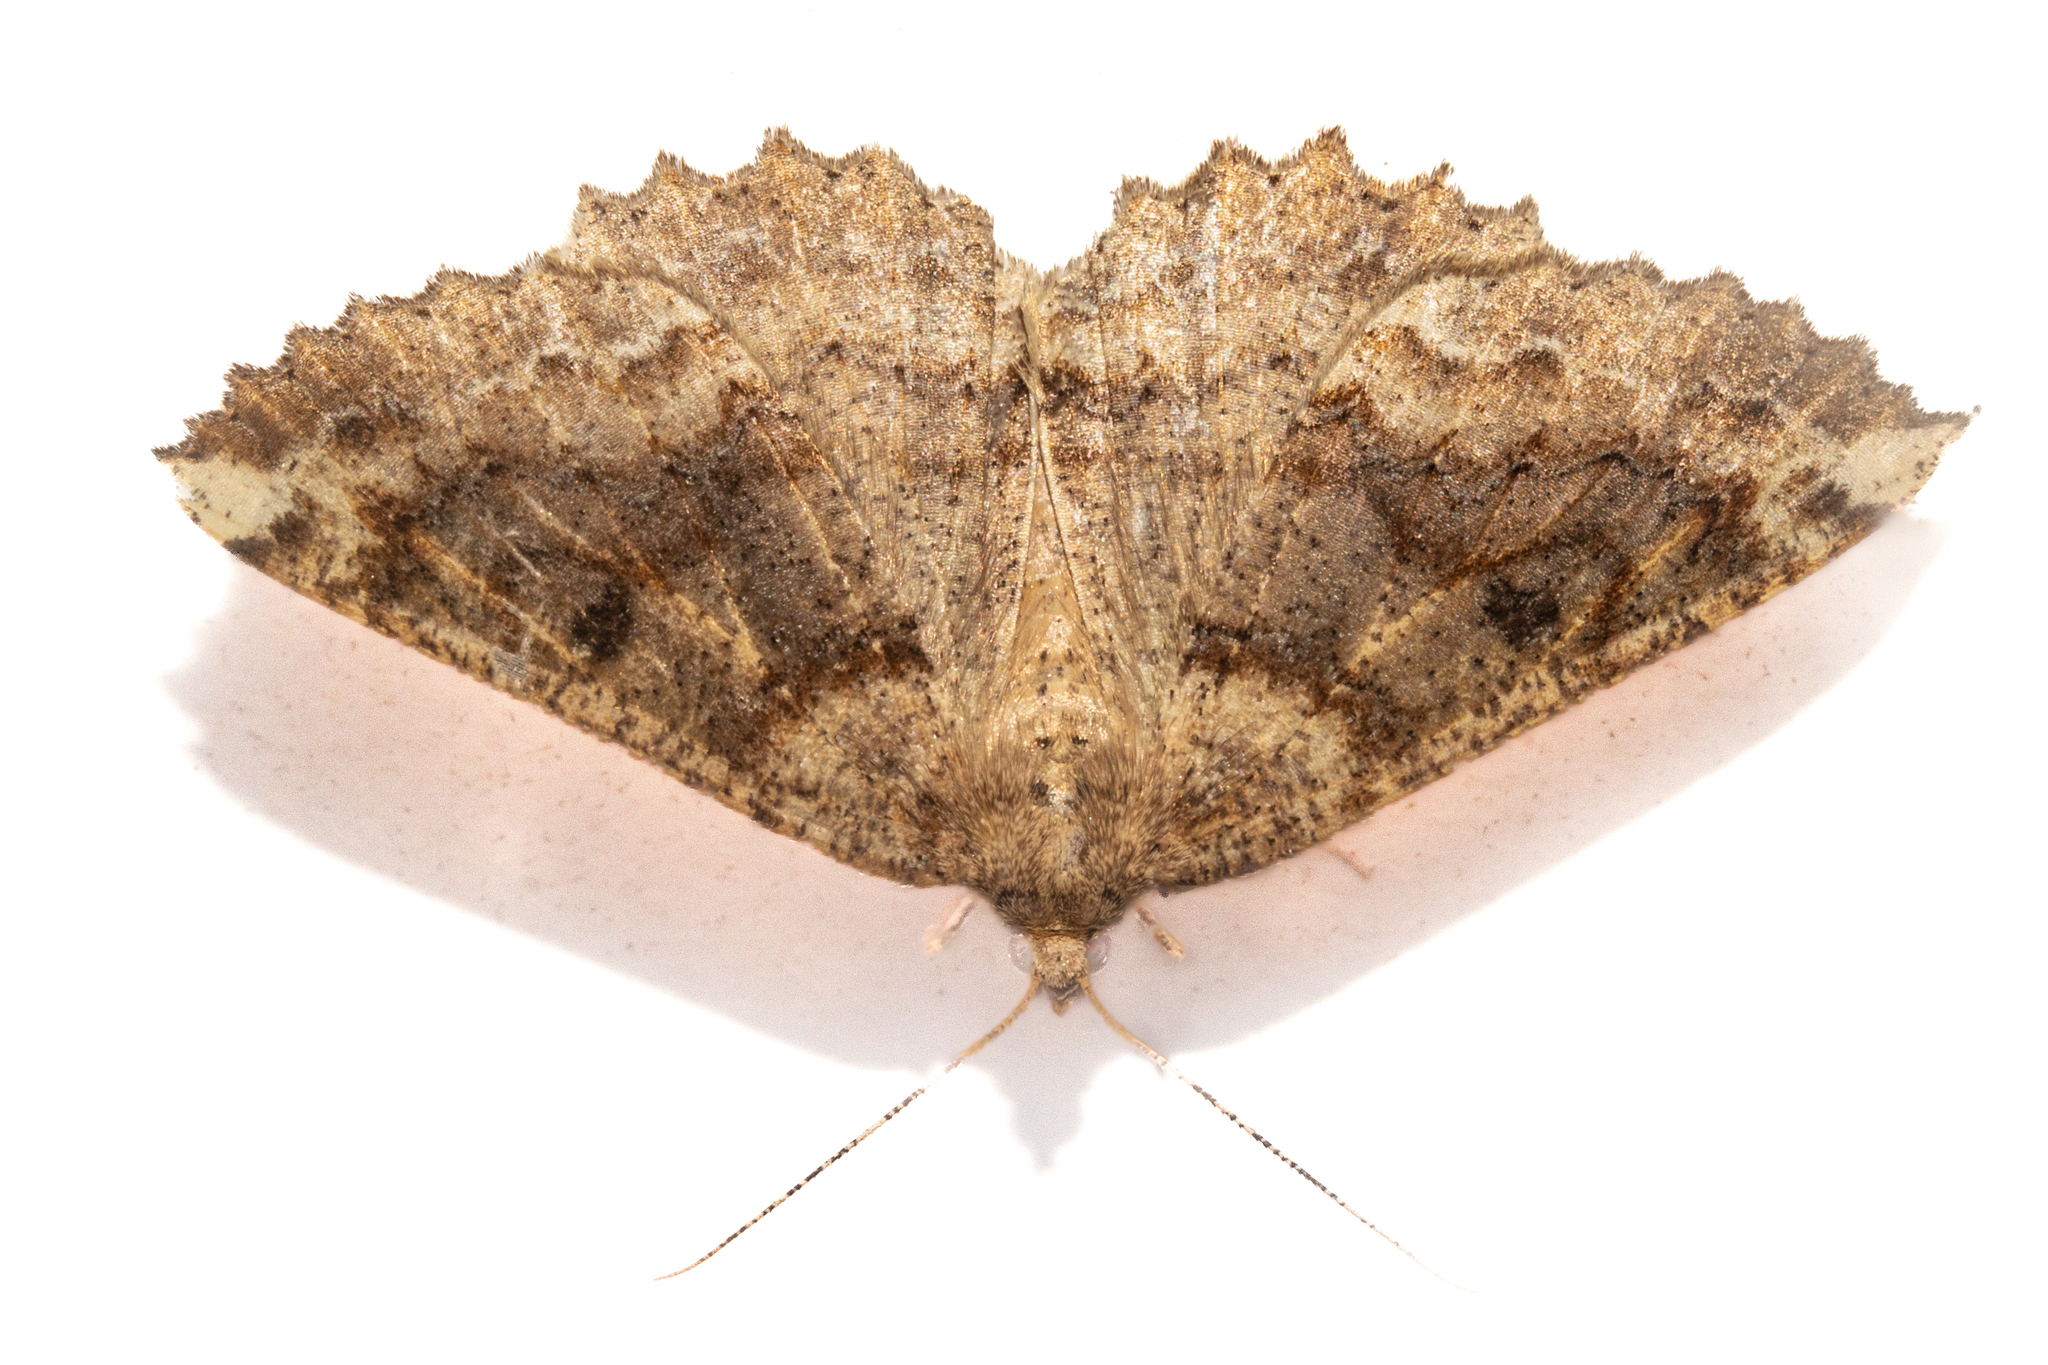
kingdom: Animalia
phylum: Arthropoda
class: Insecta
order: Lepidoptera
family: Geometridae
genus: Cleora
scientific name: Cleora scriptaria
